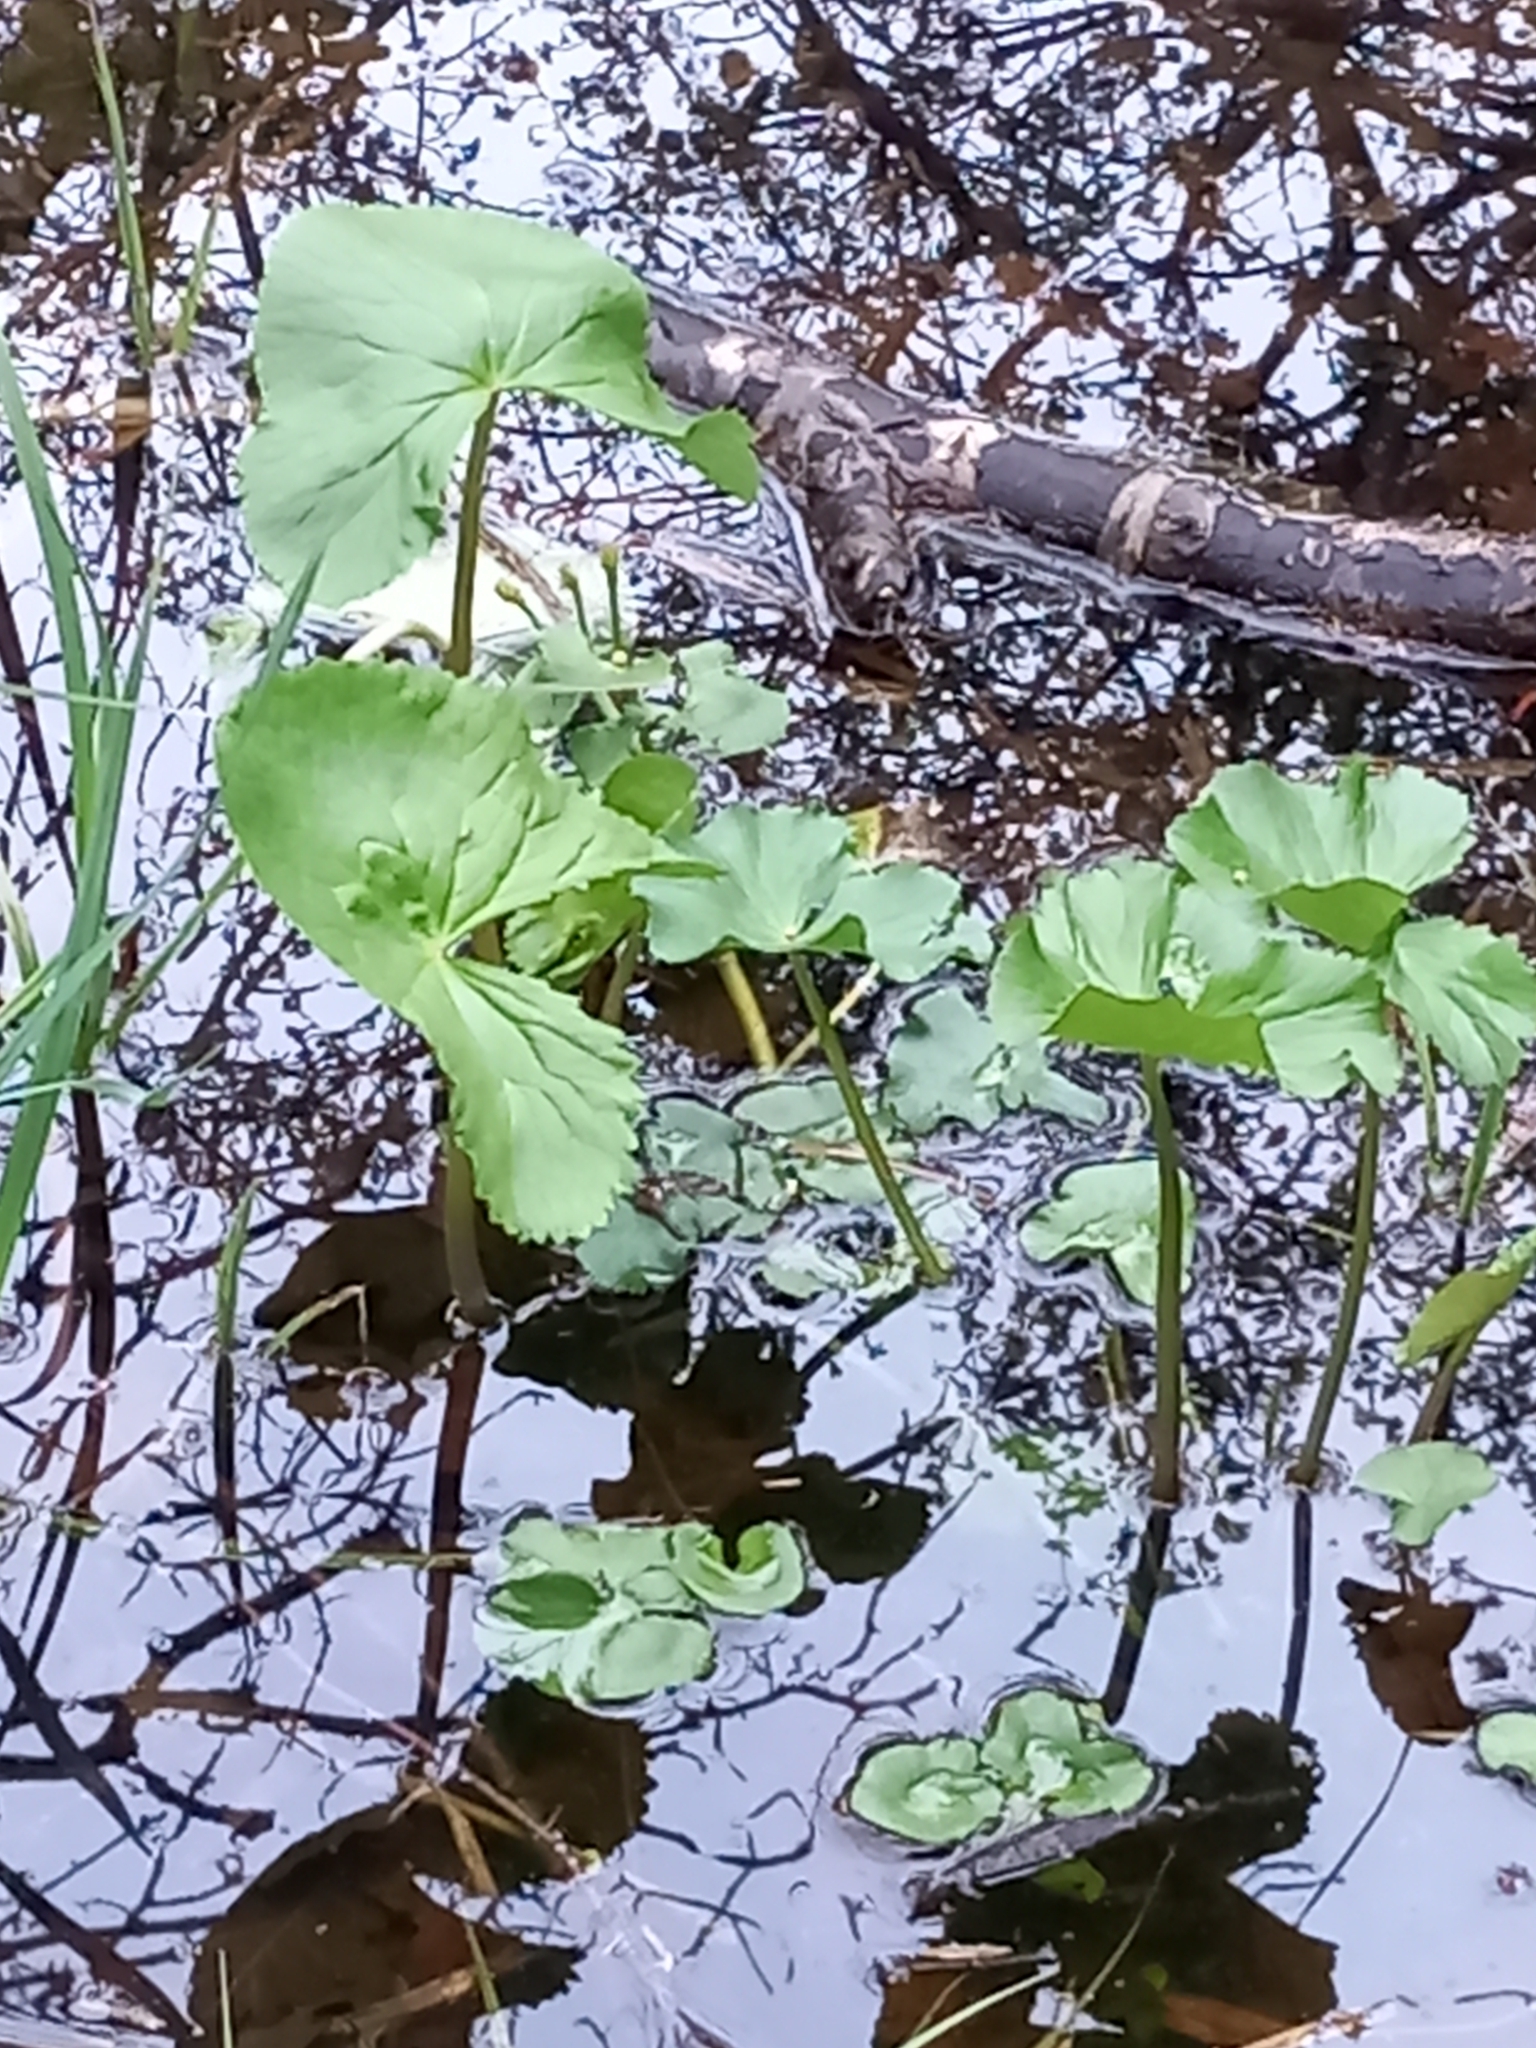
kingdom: Plantae
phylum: Tracheophyta
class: Magnoliopsida
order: Ranunculales
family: Ranunculaceae
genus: Caltha
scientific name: Caltha palustris
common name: Marsh marigold
